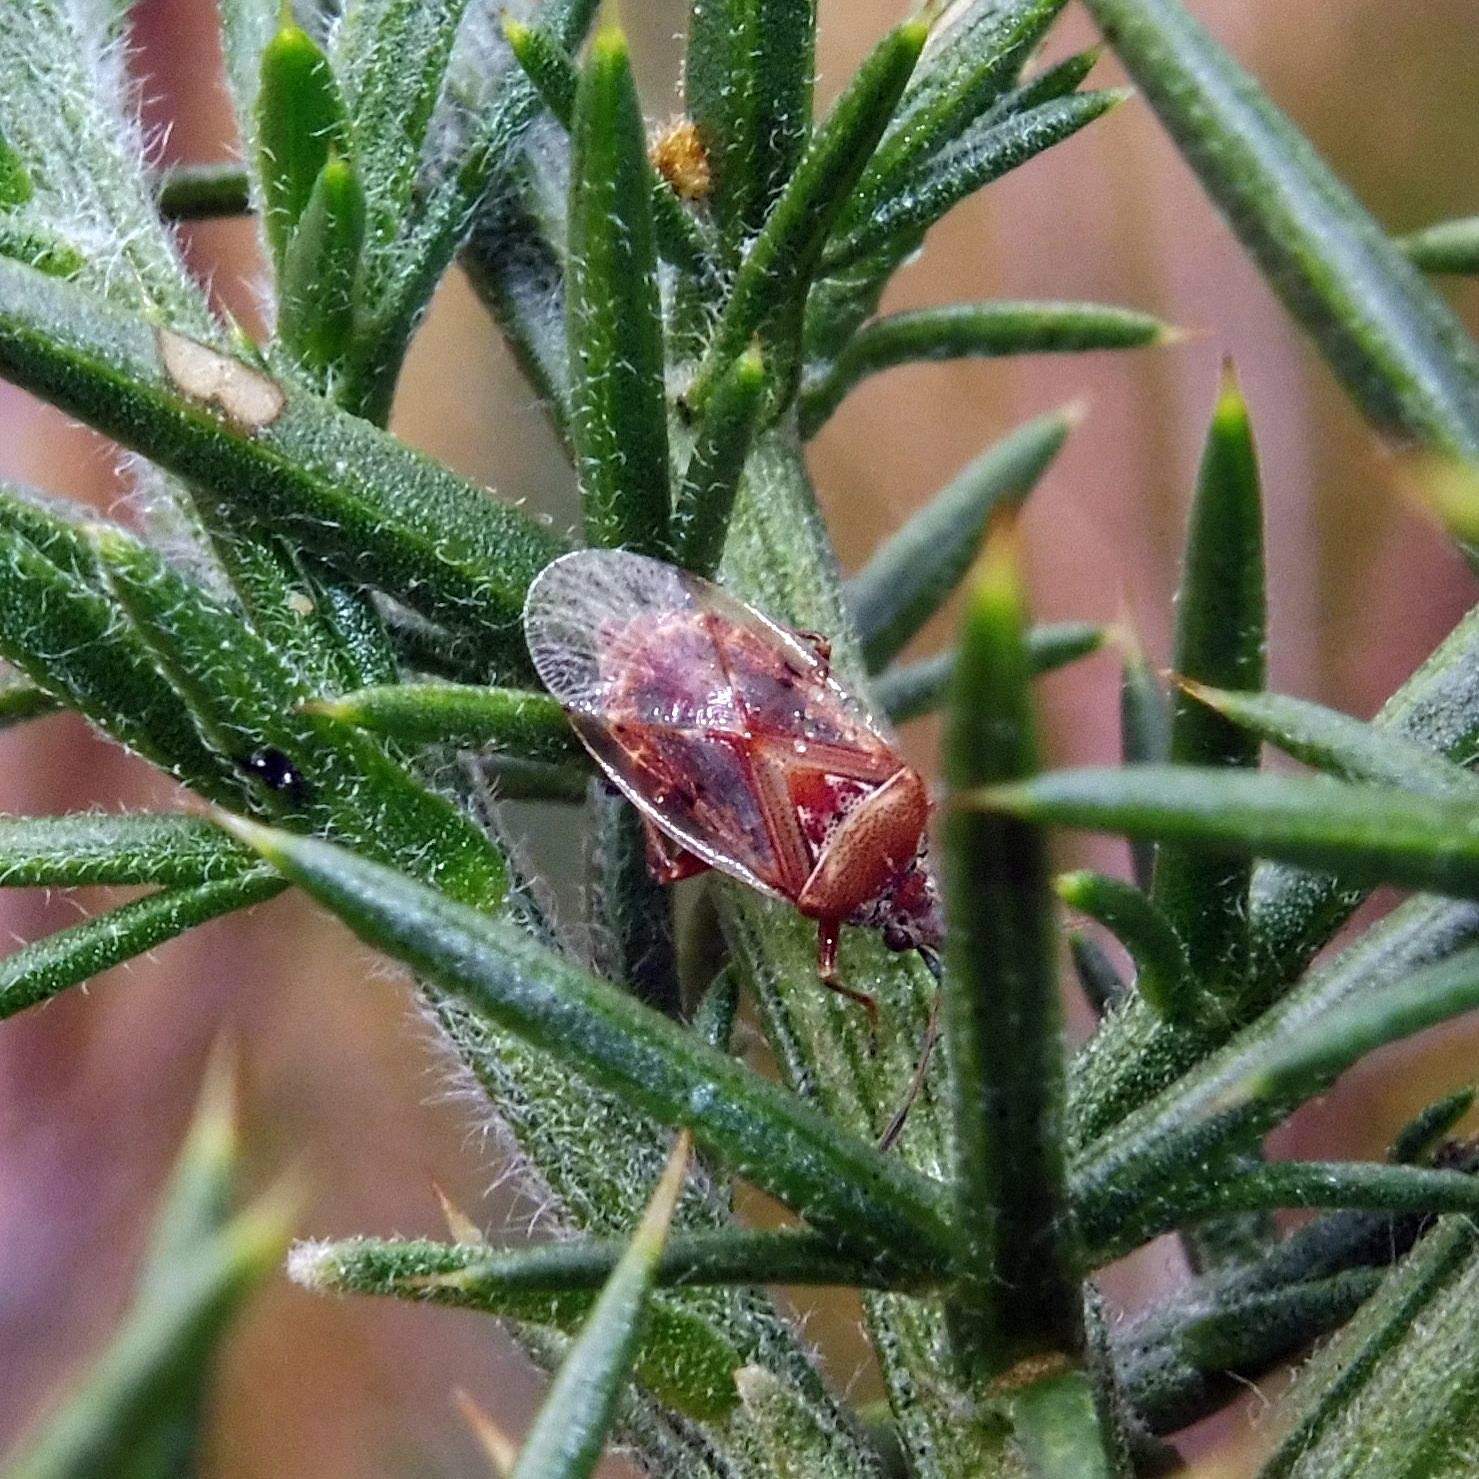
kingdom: Animalia
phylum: Arthropoda
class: Insecta
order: Hemiptera
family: Lygaeidae
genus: Kleidocerys
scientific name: Kleidocerys resedae
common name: Birch catkin bug
